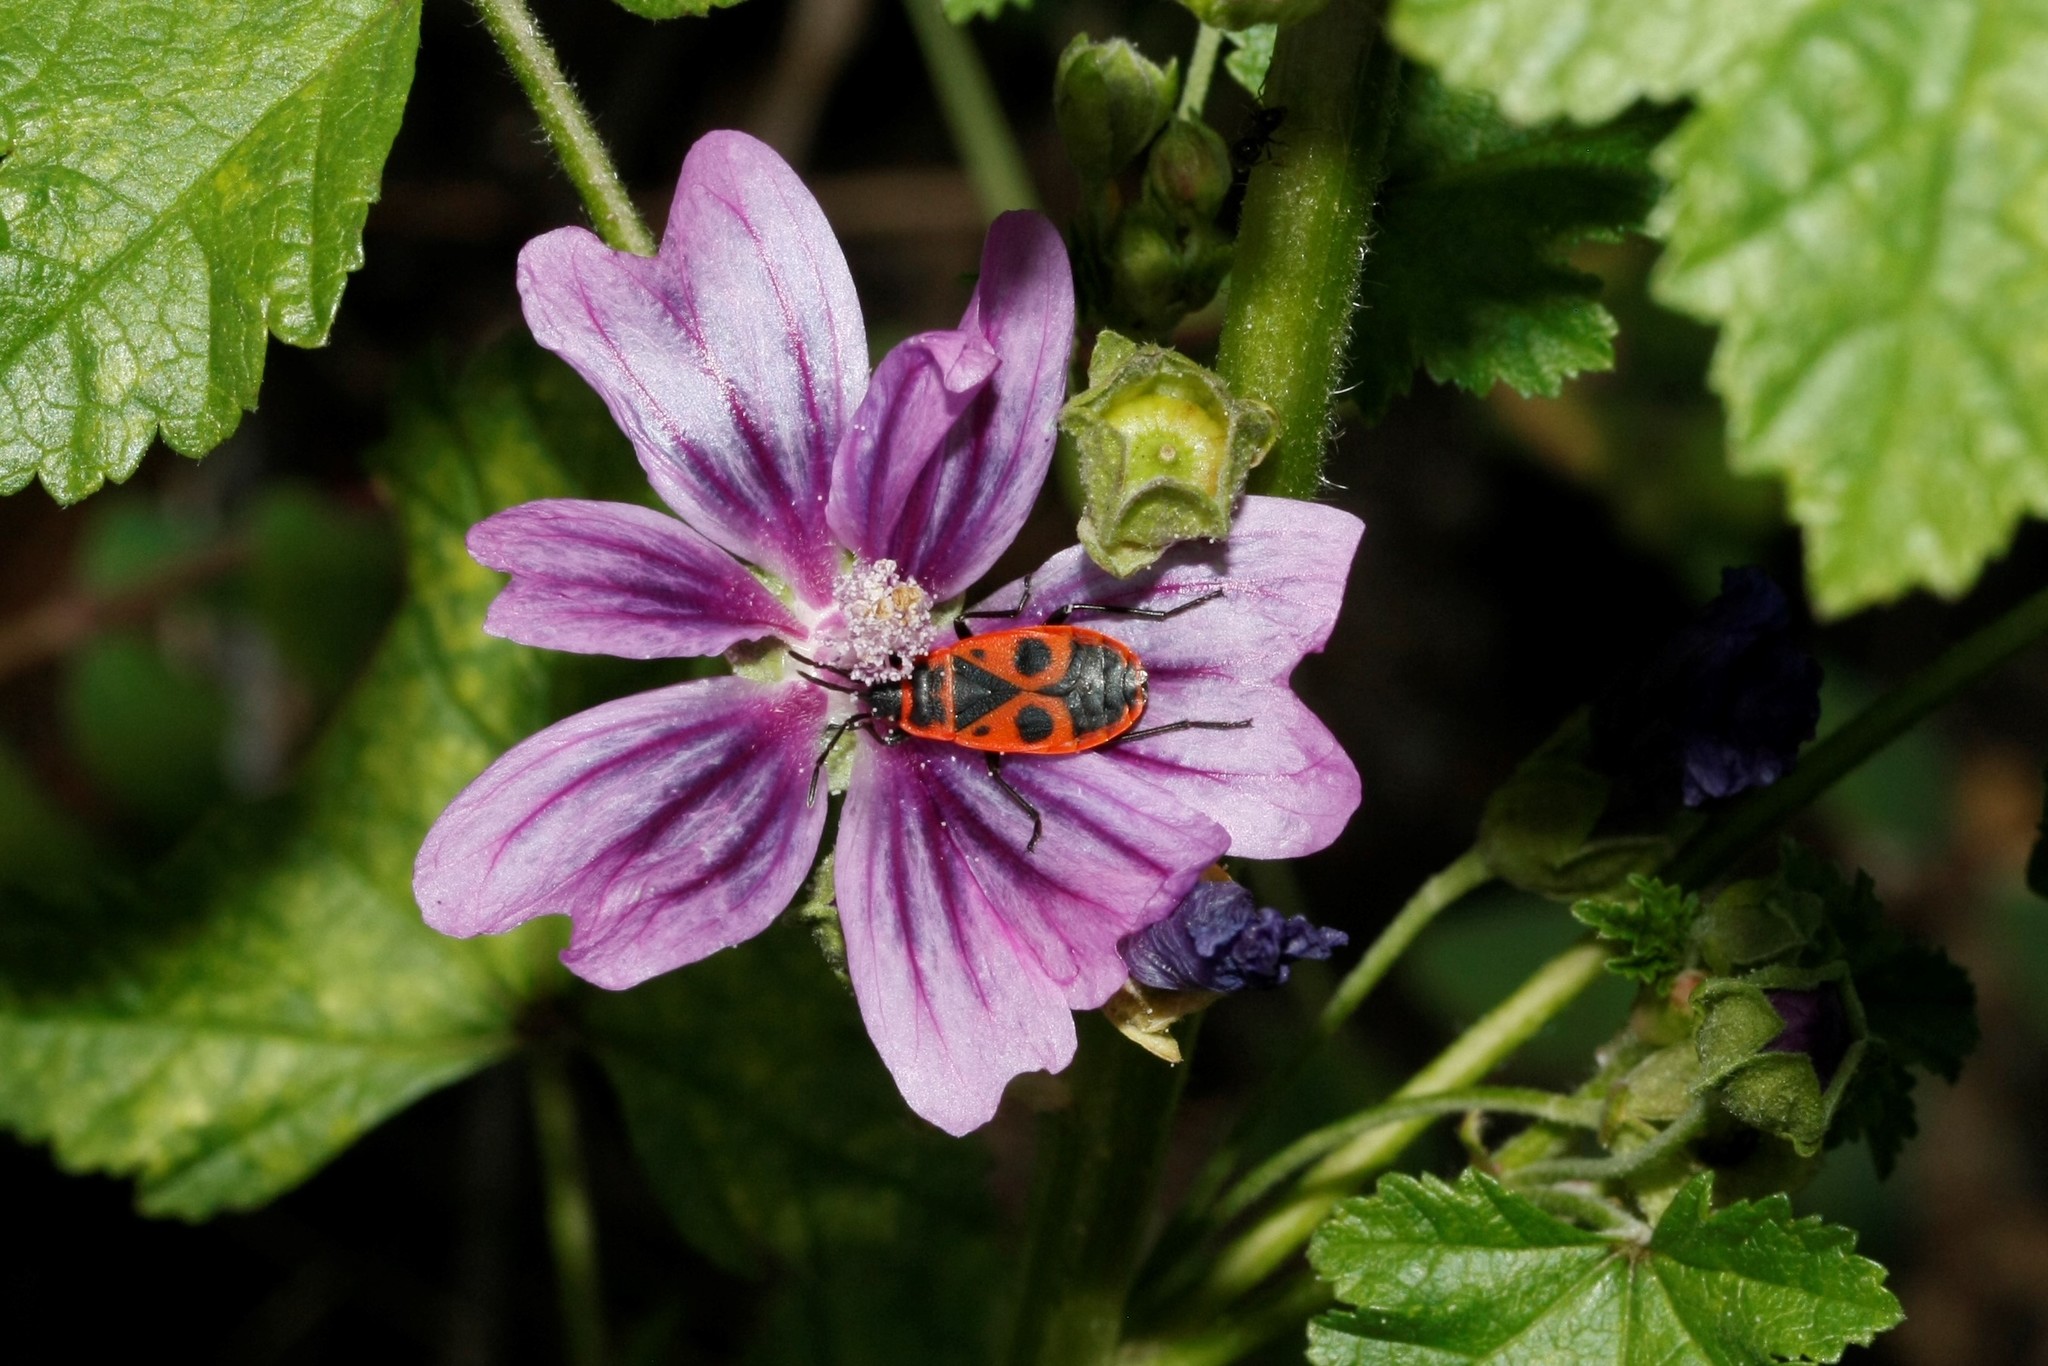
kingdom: Animalia
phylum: Arthropoda
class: Insecta
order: Hemiptera
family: Pyrrhocoridae
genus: Pyrrhocoris
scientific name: Pyrrhocoris apterus
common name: Firebug
